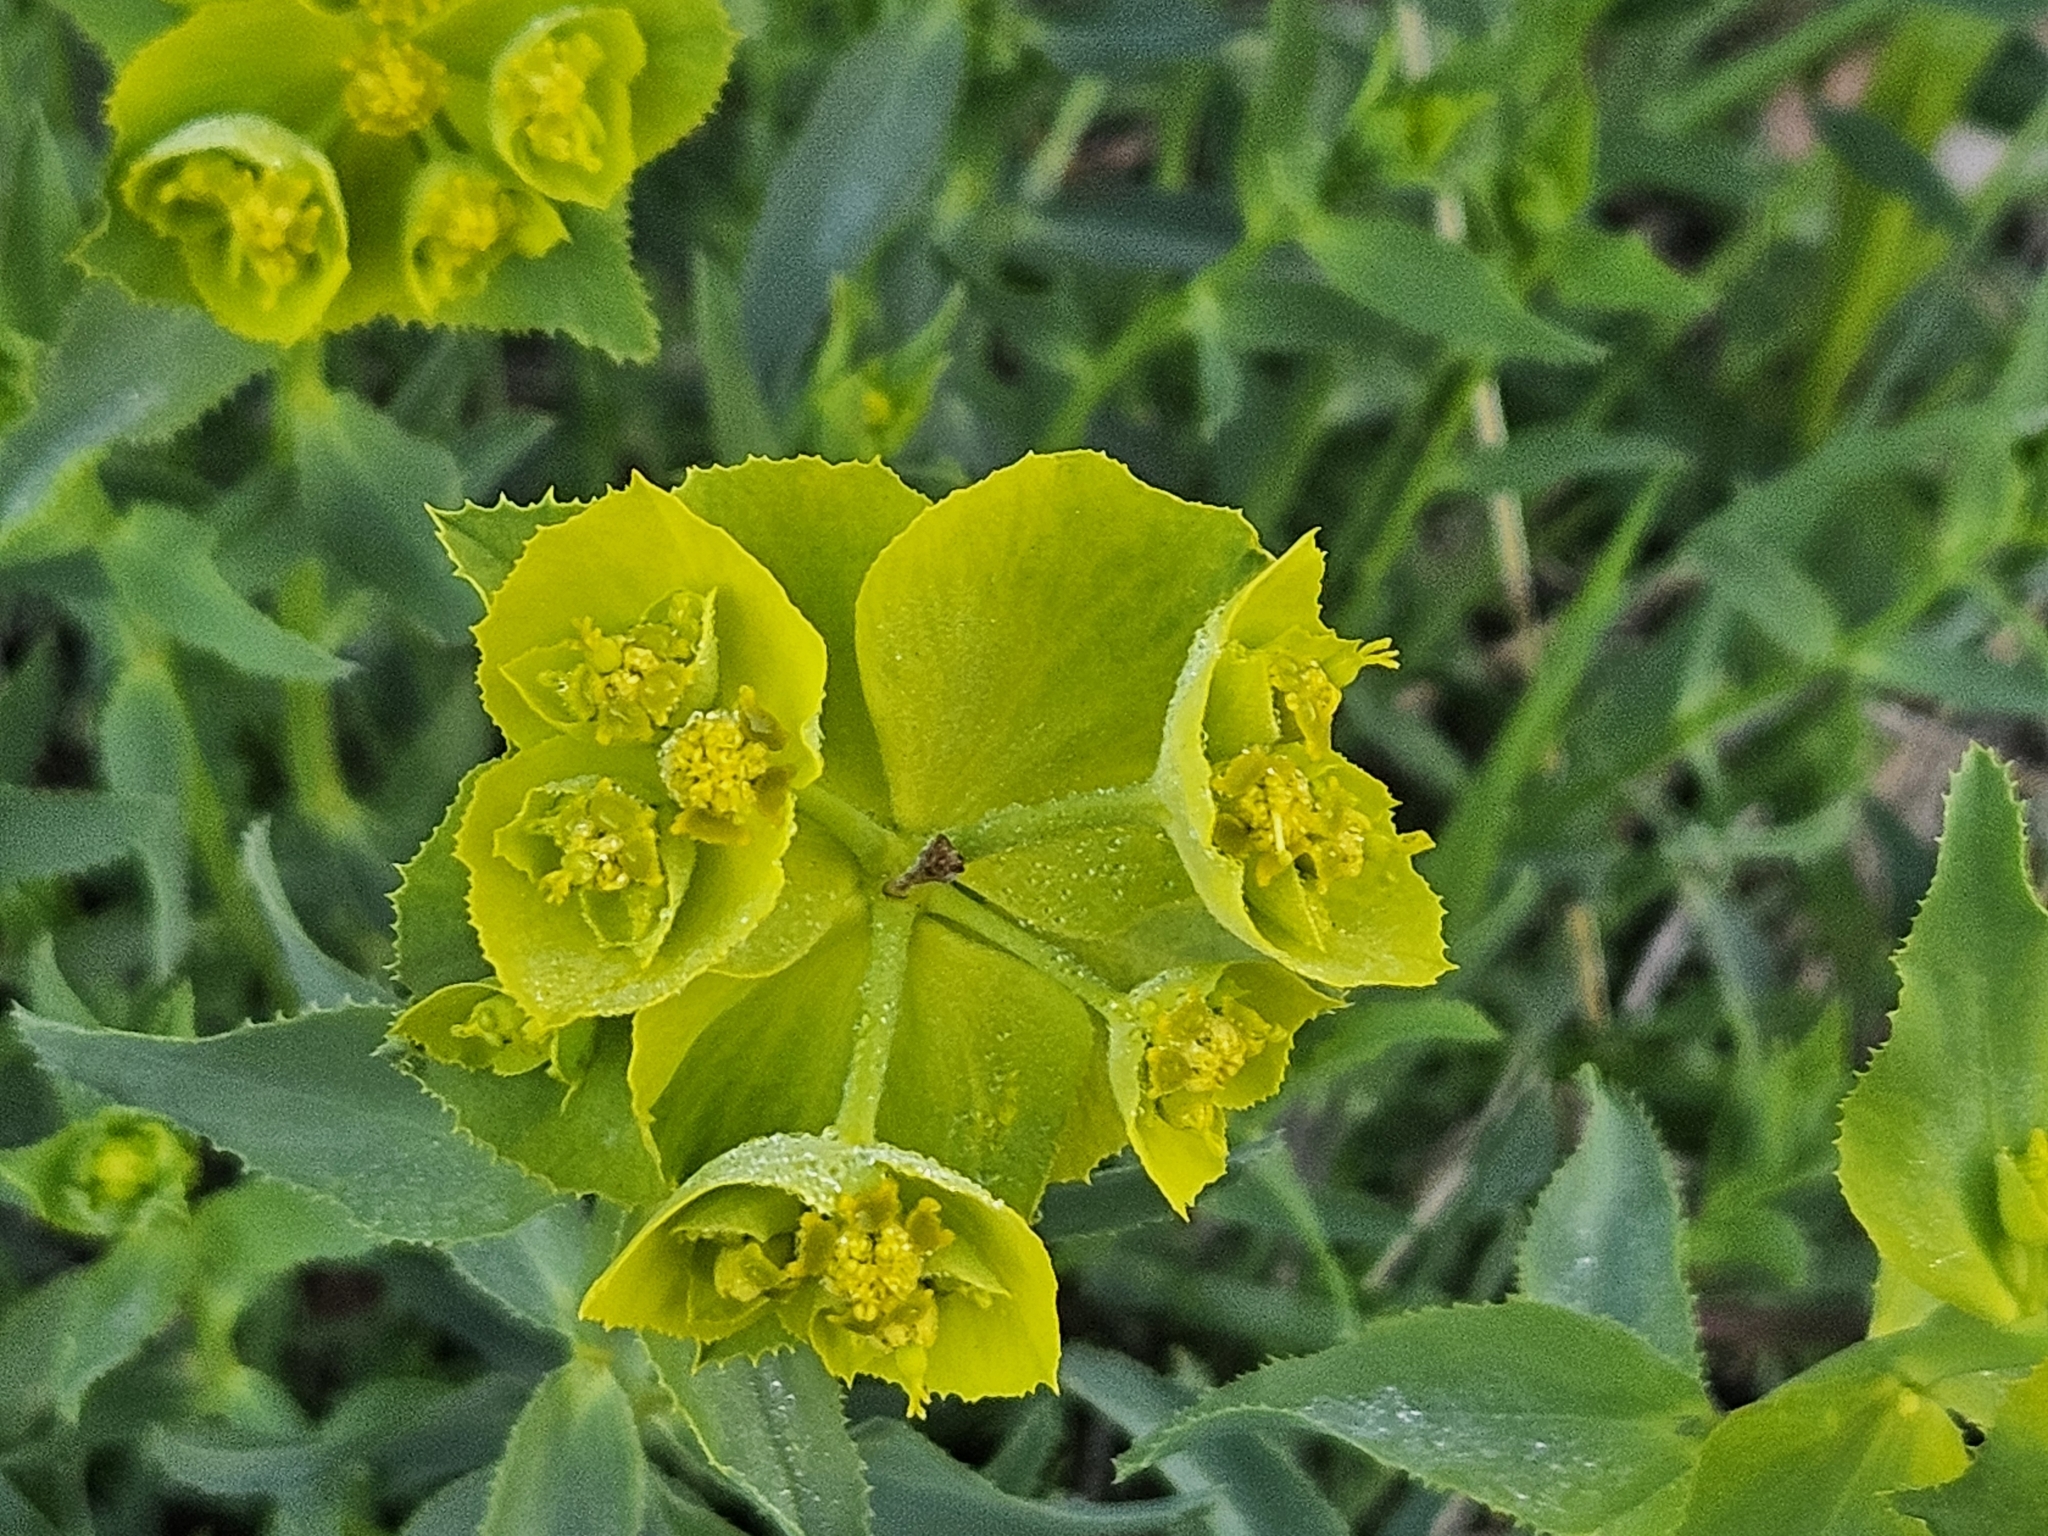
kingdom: Plantae
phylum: Tracheophyta
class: Magnoliopsida
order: Malpighiales
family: Euphorbiaceae
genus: Euphorbia
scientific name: Euphorbia serrata
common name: Serrate spurge
